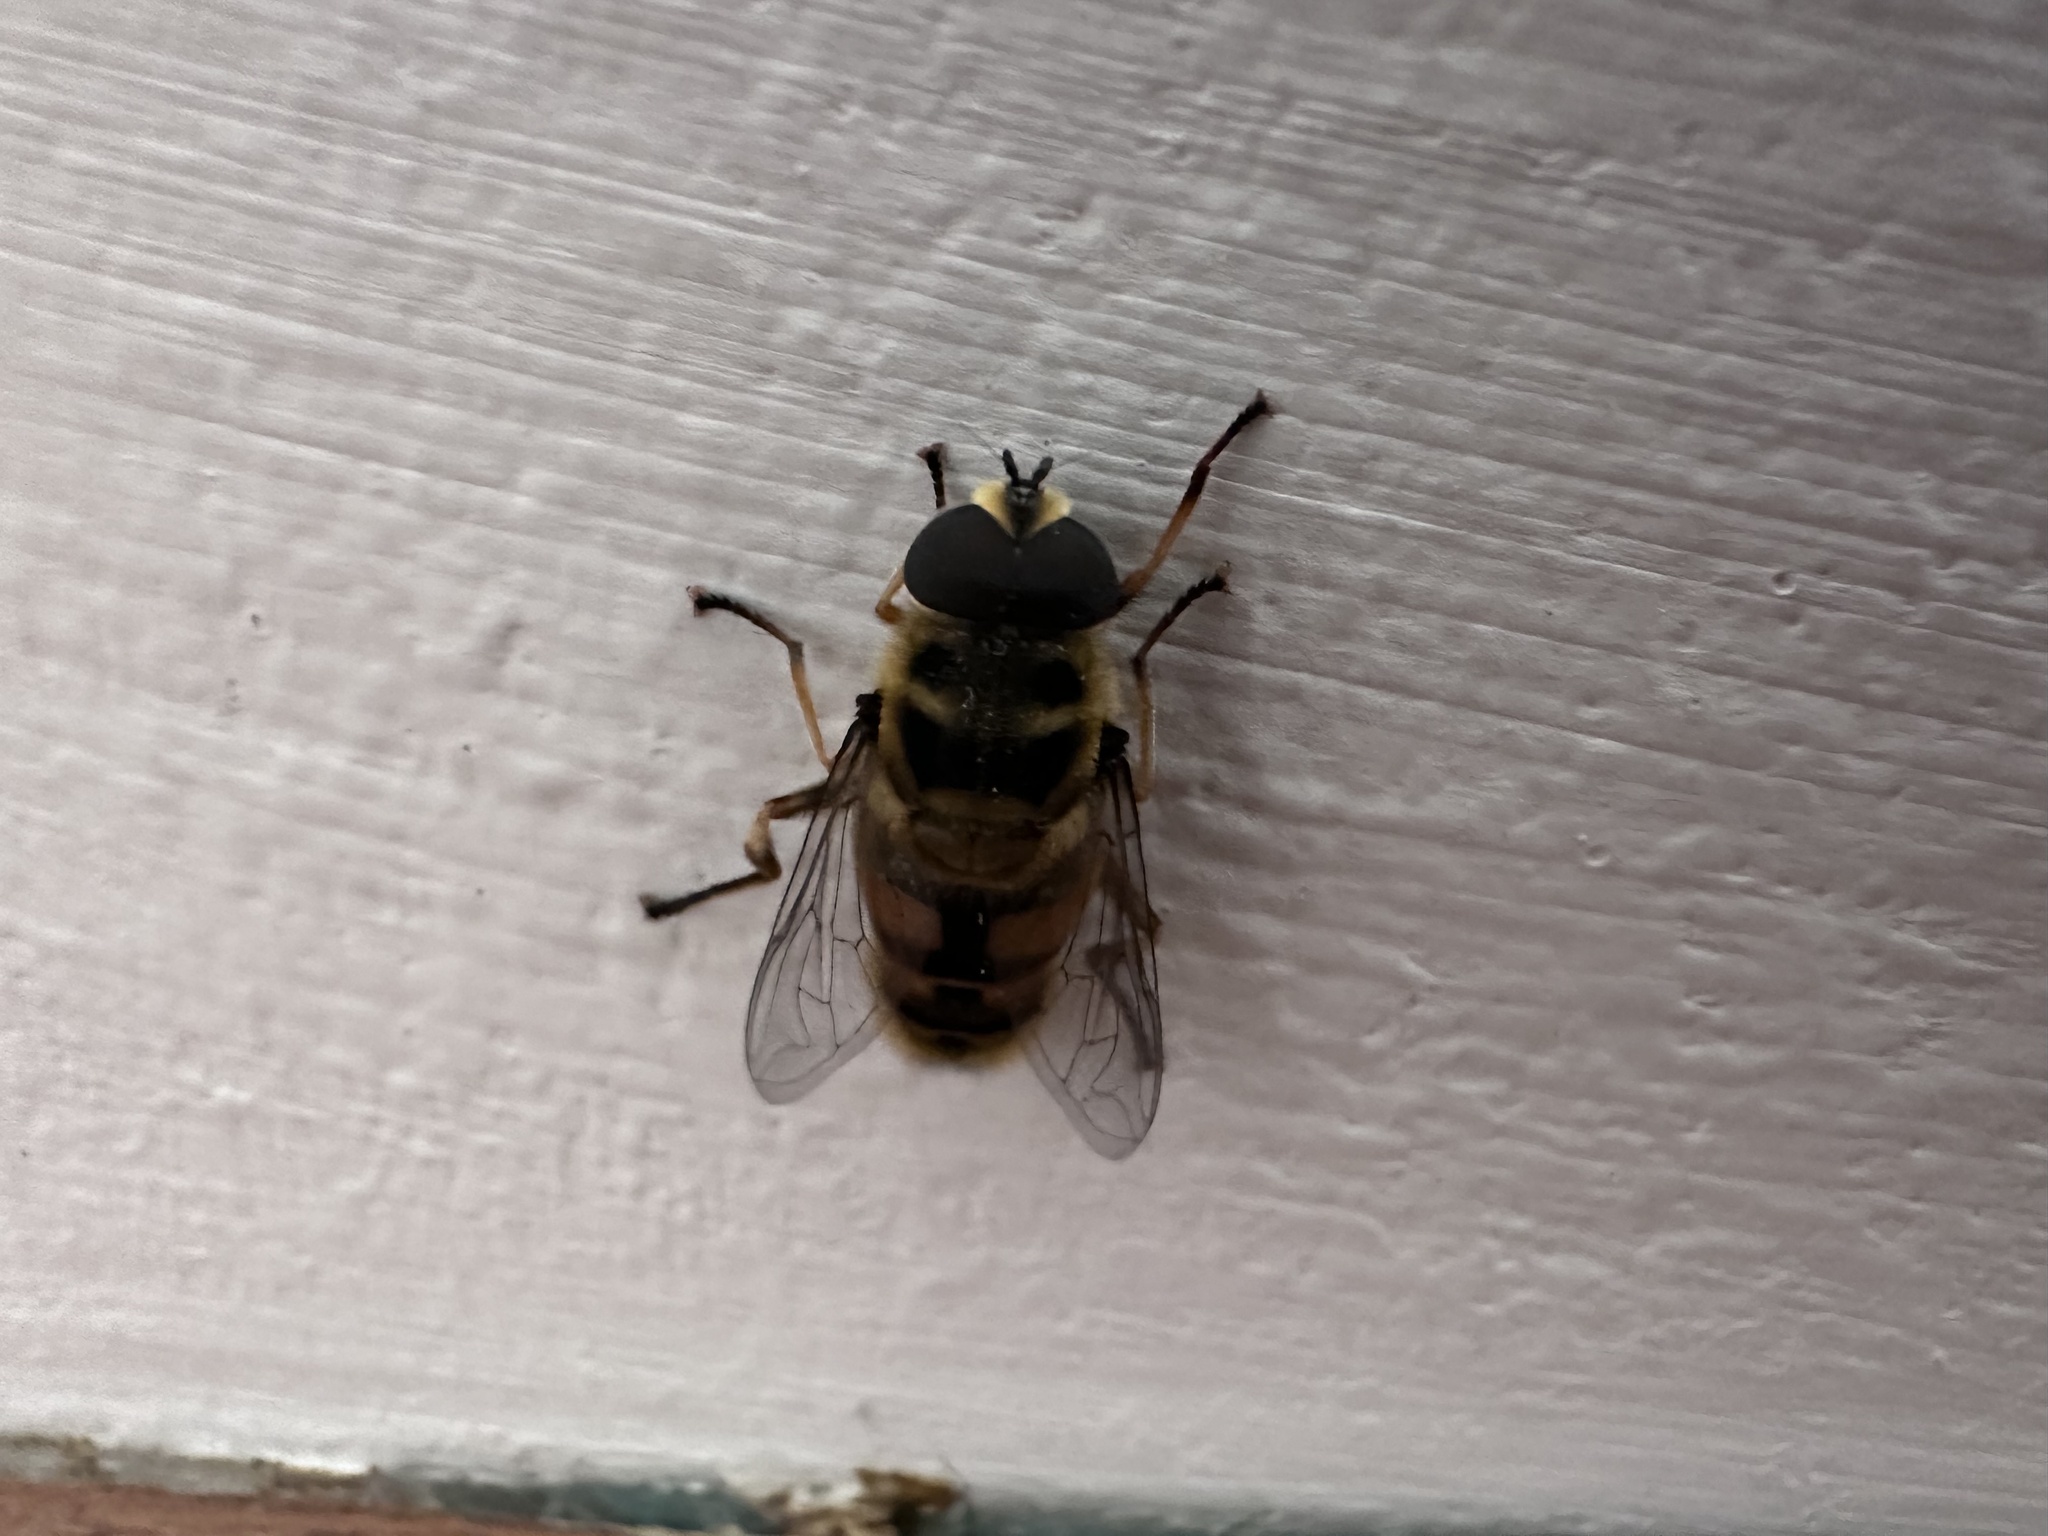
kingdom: Animalia
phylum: Arthropoda
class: Insecta
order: Diptera
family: Syrphidae
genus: Myathropa
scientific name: Myathropa florea
